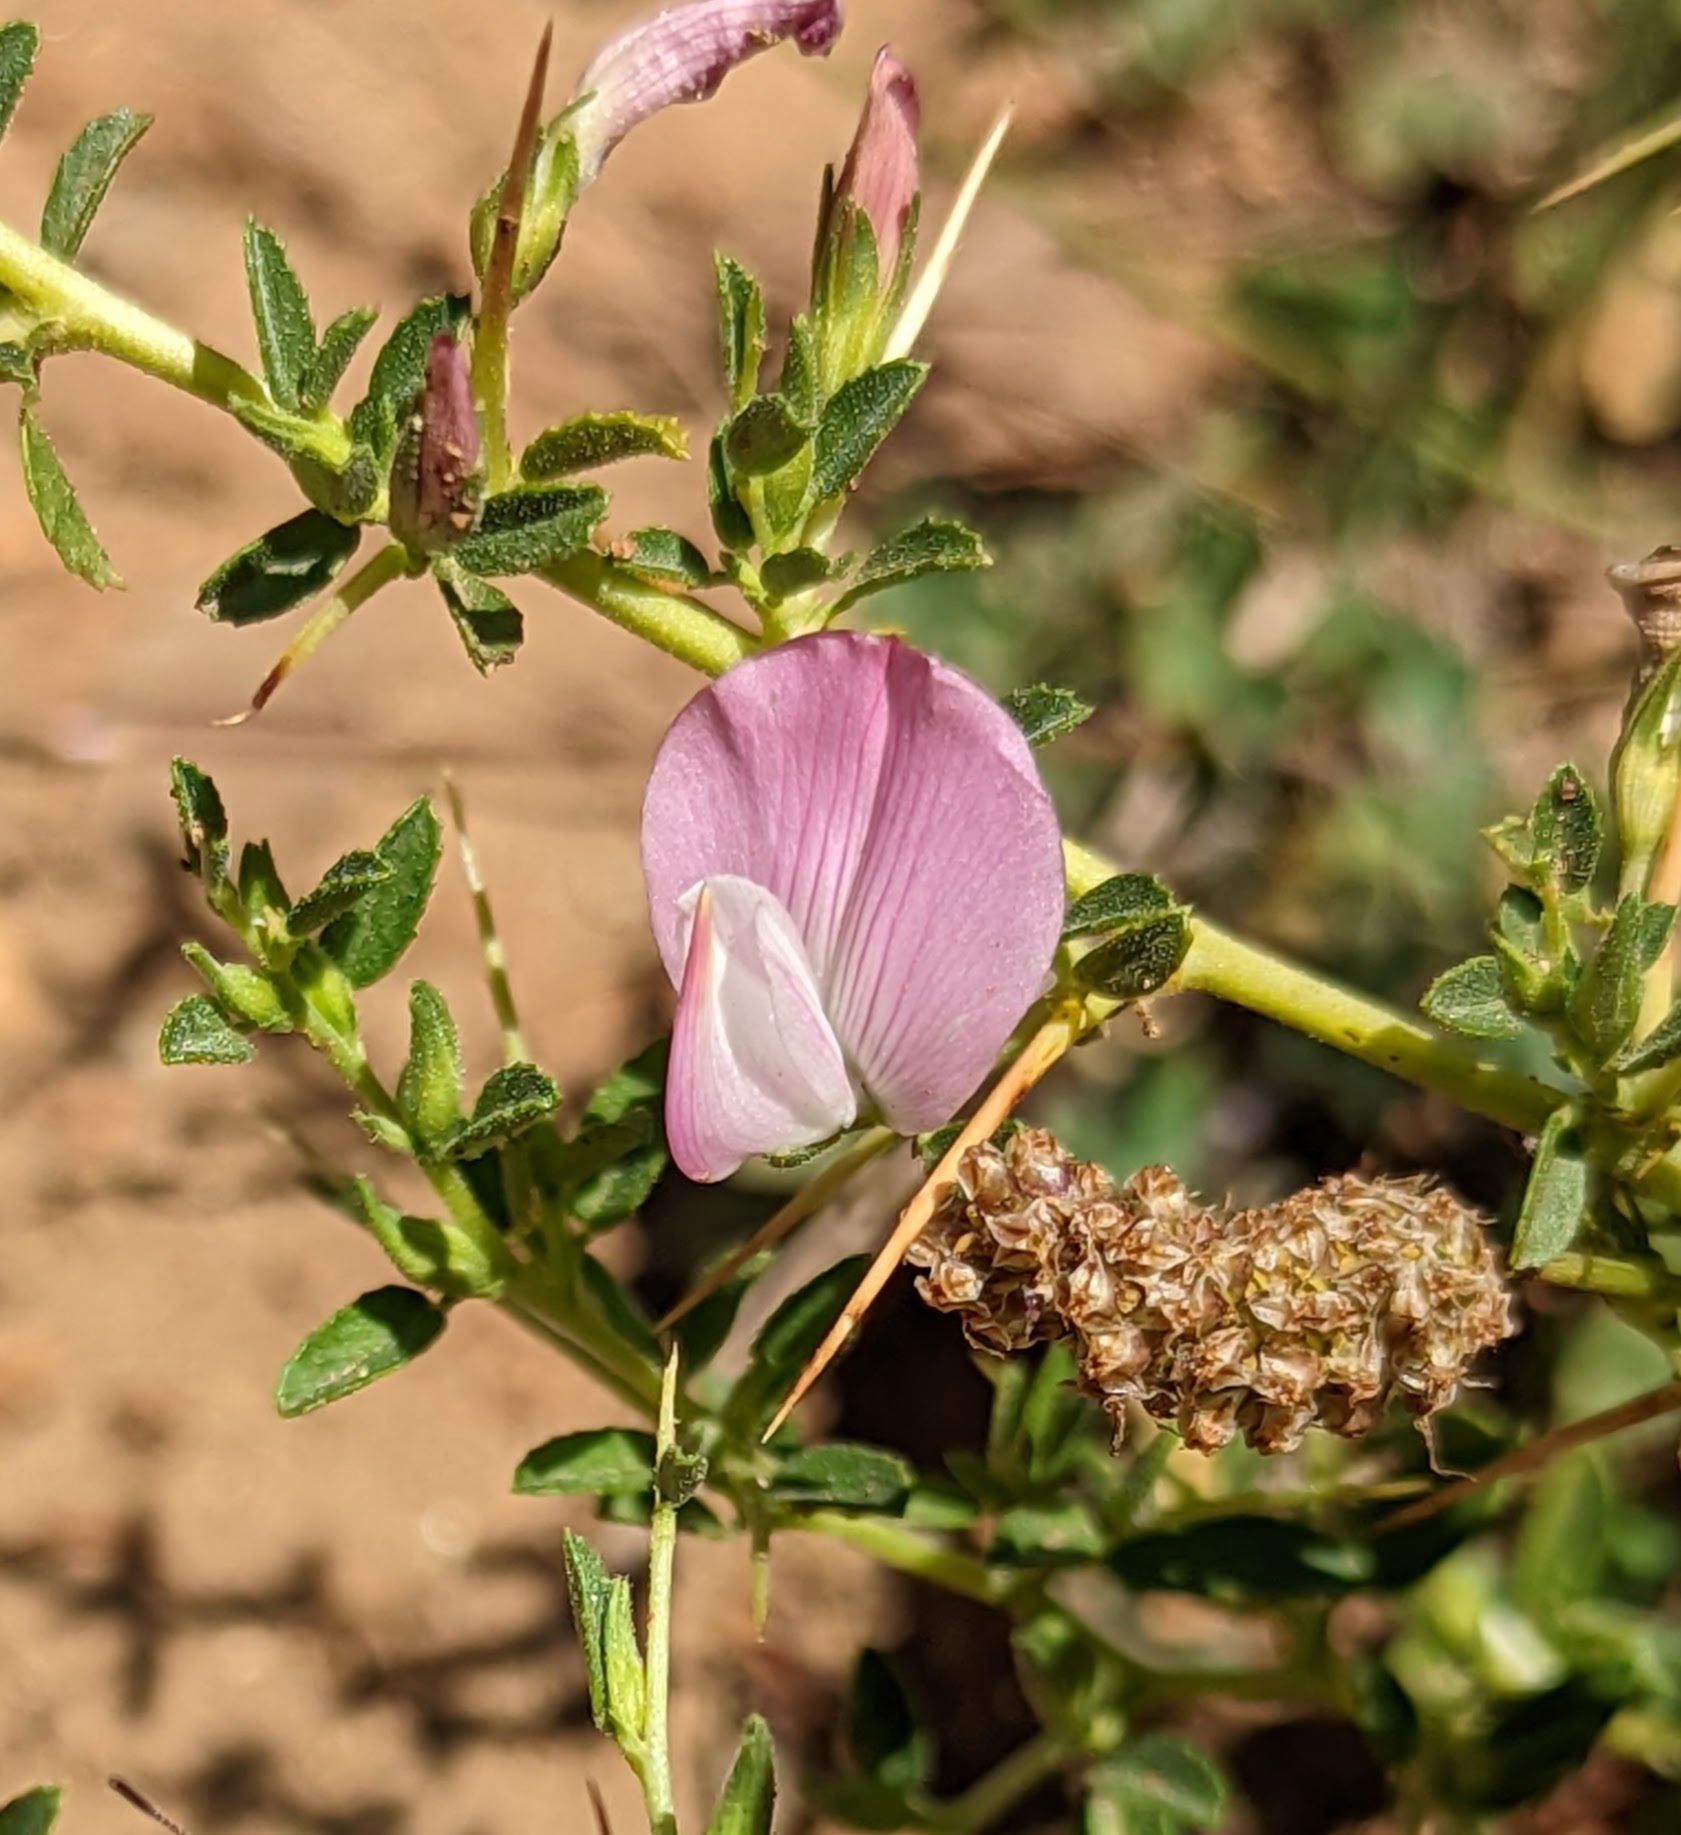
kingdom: Plantae
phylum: Tracheophyta
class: Magnoliopsida
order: Fabales
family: Fabaceae
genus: Ononis
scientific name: Ononis spinosa
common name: Spiny restharrow
